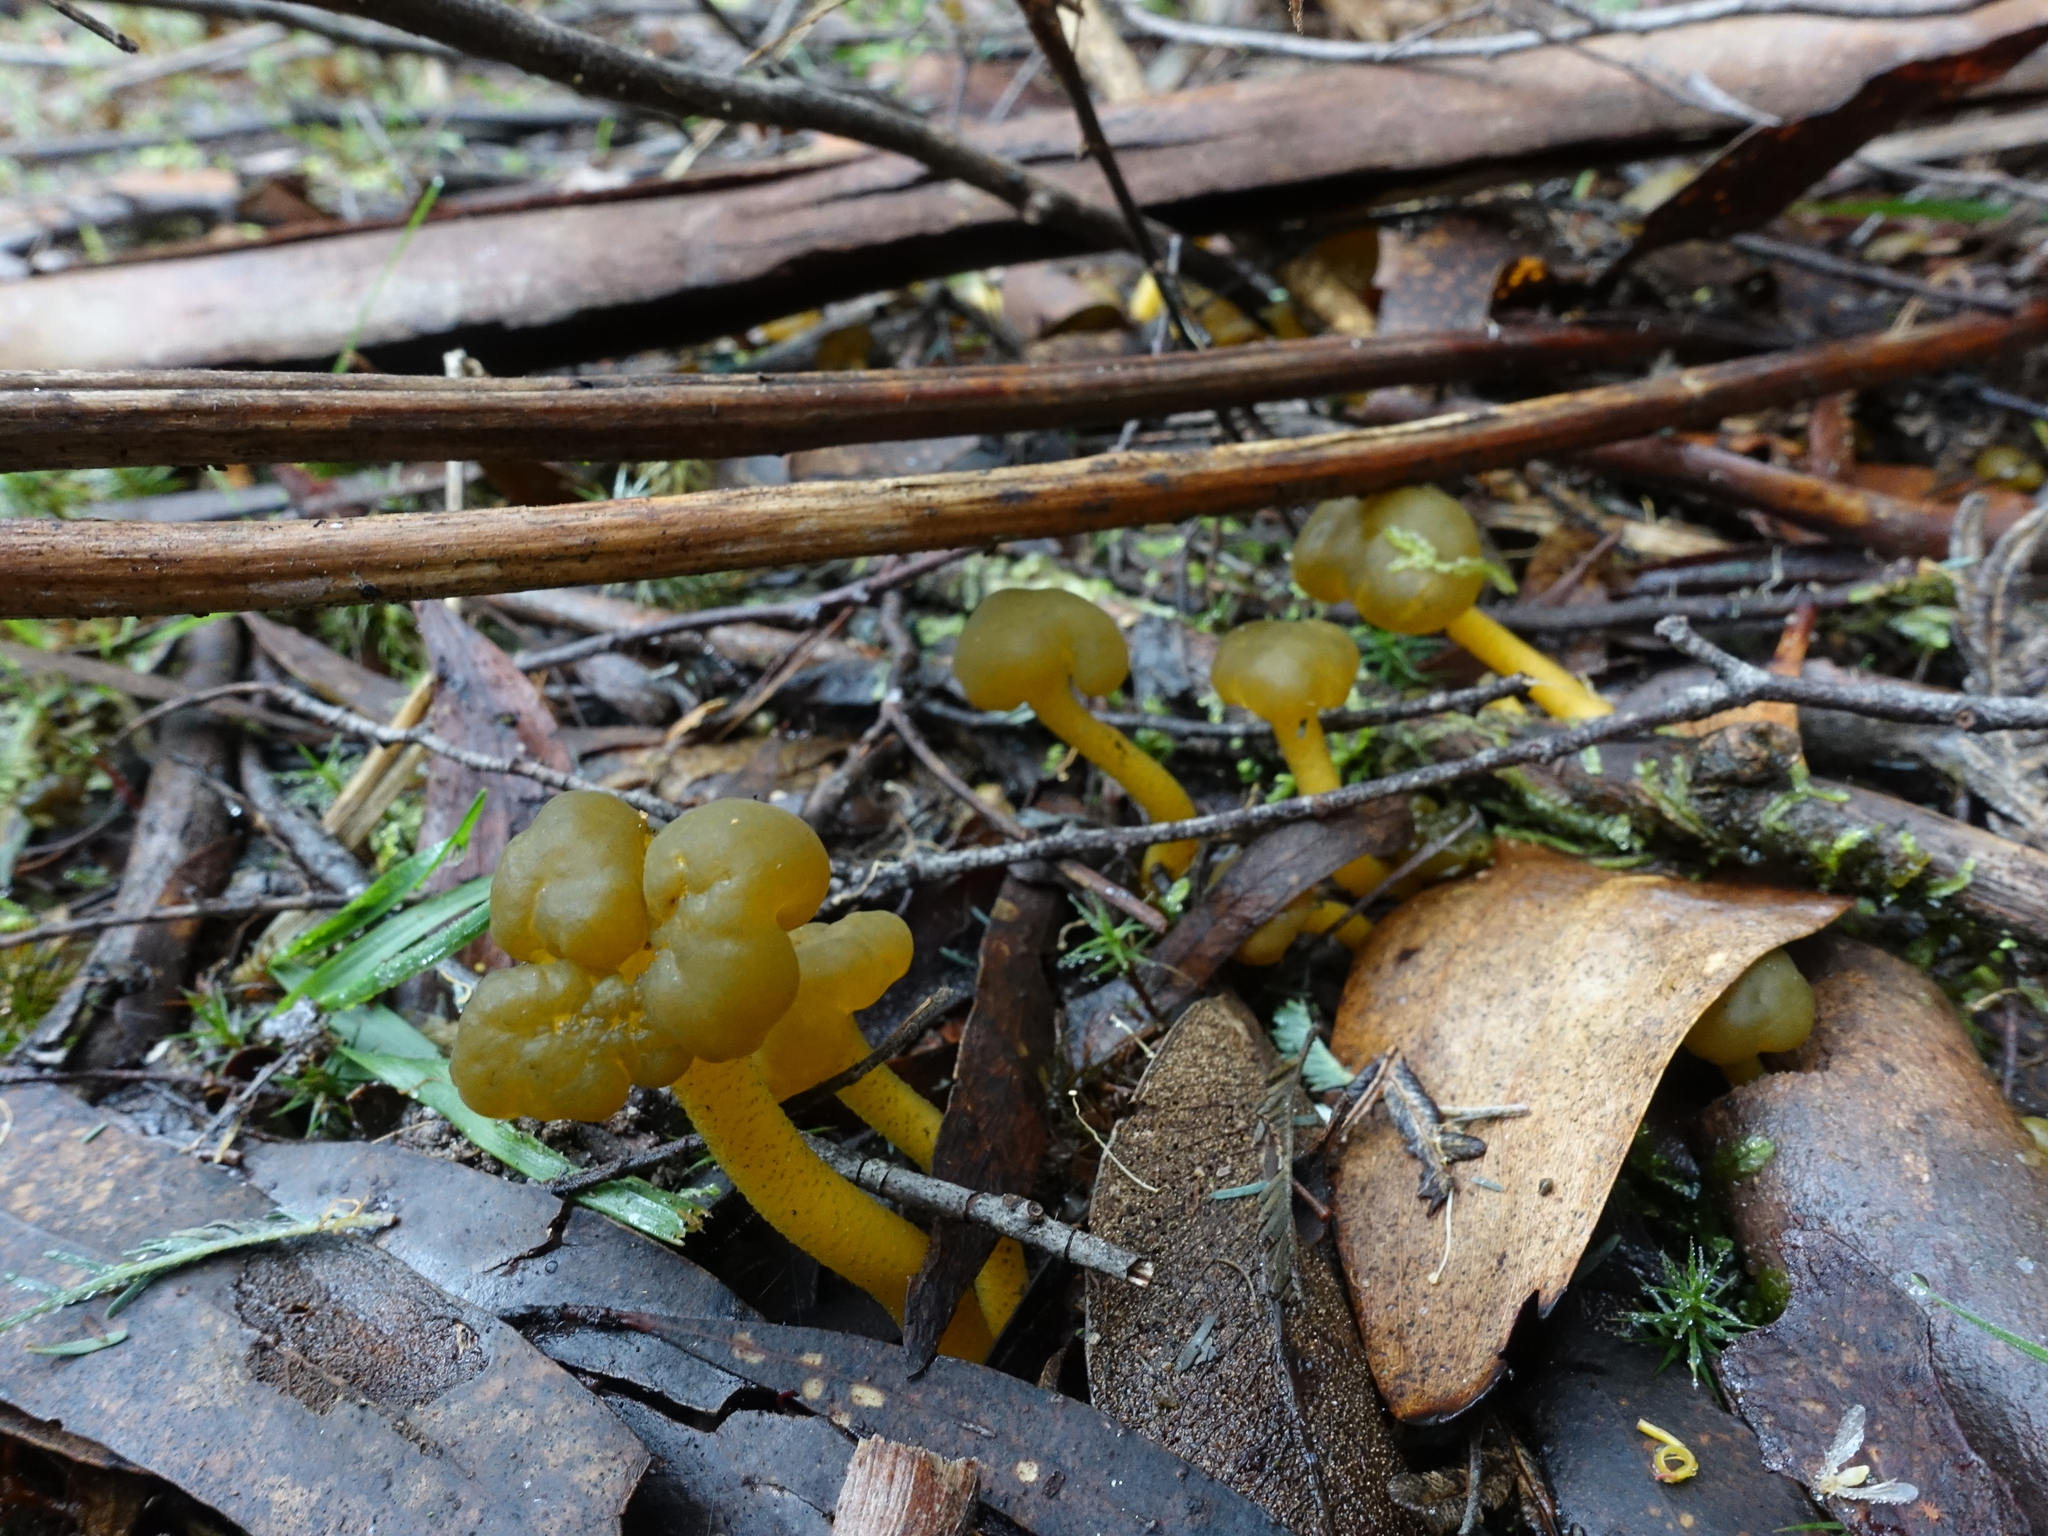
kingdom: Fungi
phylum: Ascomycota
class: Leotiomycetes
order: Leotiales
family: Leotiaceae
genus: Leotia
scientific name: Leotia lubrica
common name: Jellybaby
